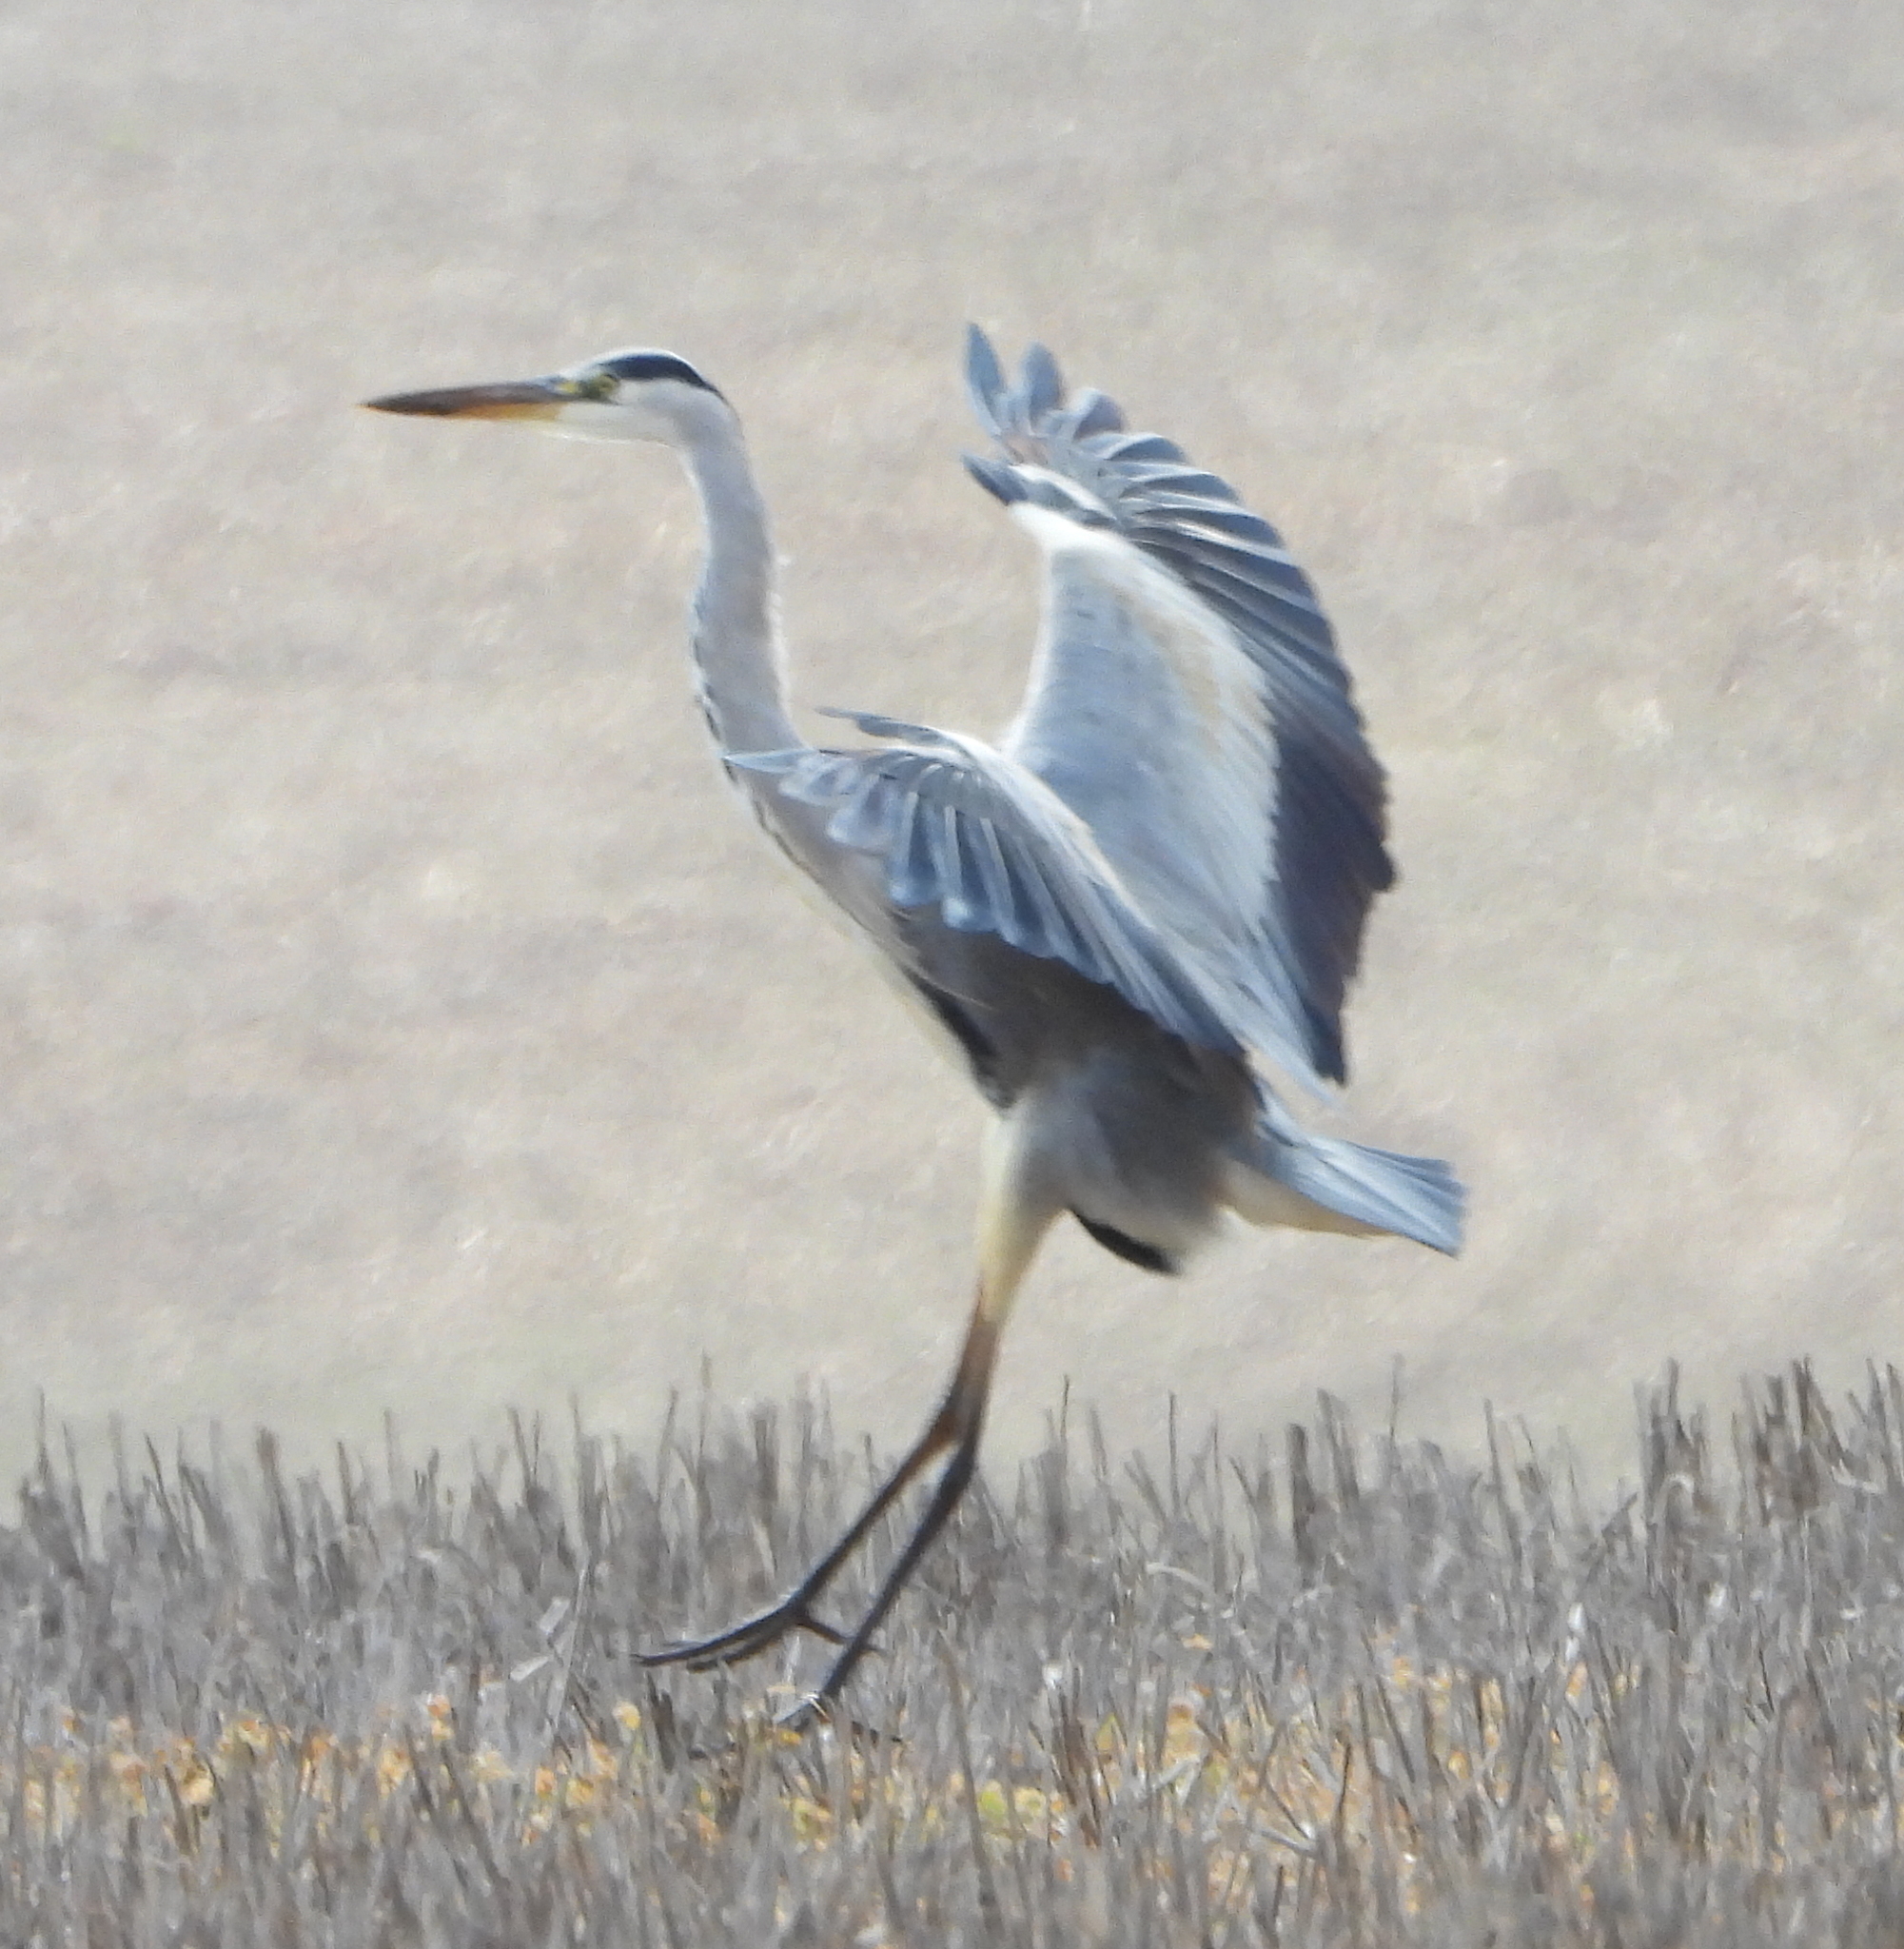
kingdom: Animalia
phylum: Chordata
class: Aves
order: Pelecaniformes
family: Ardeidae
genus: Ardea
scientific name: Ardea cinerea
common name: Grey heron
